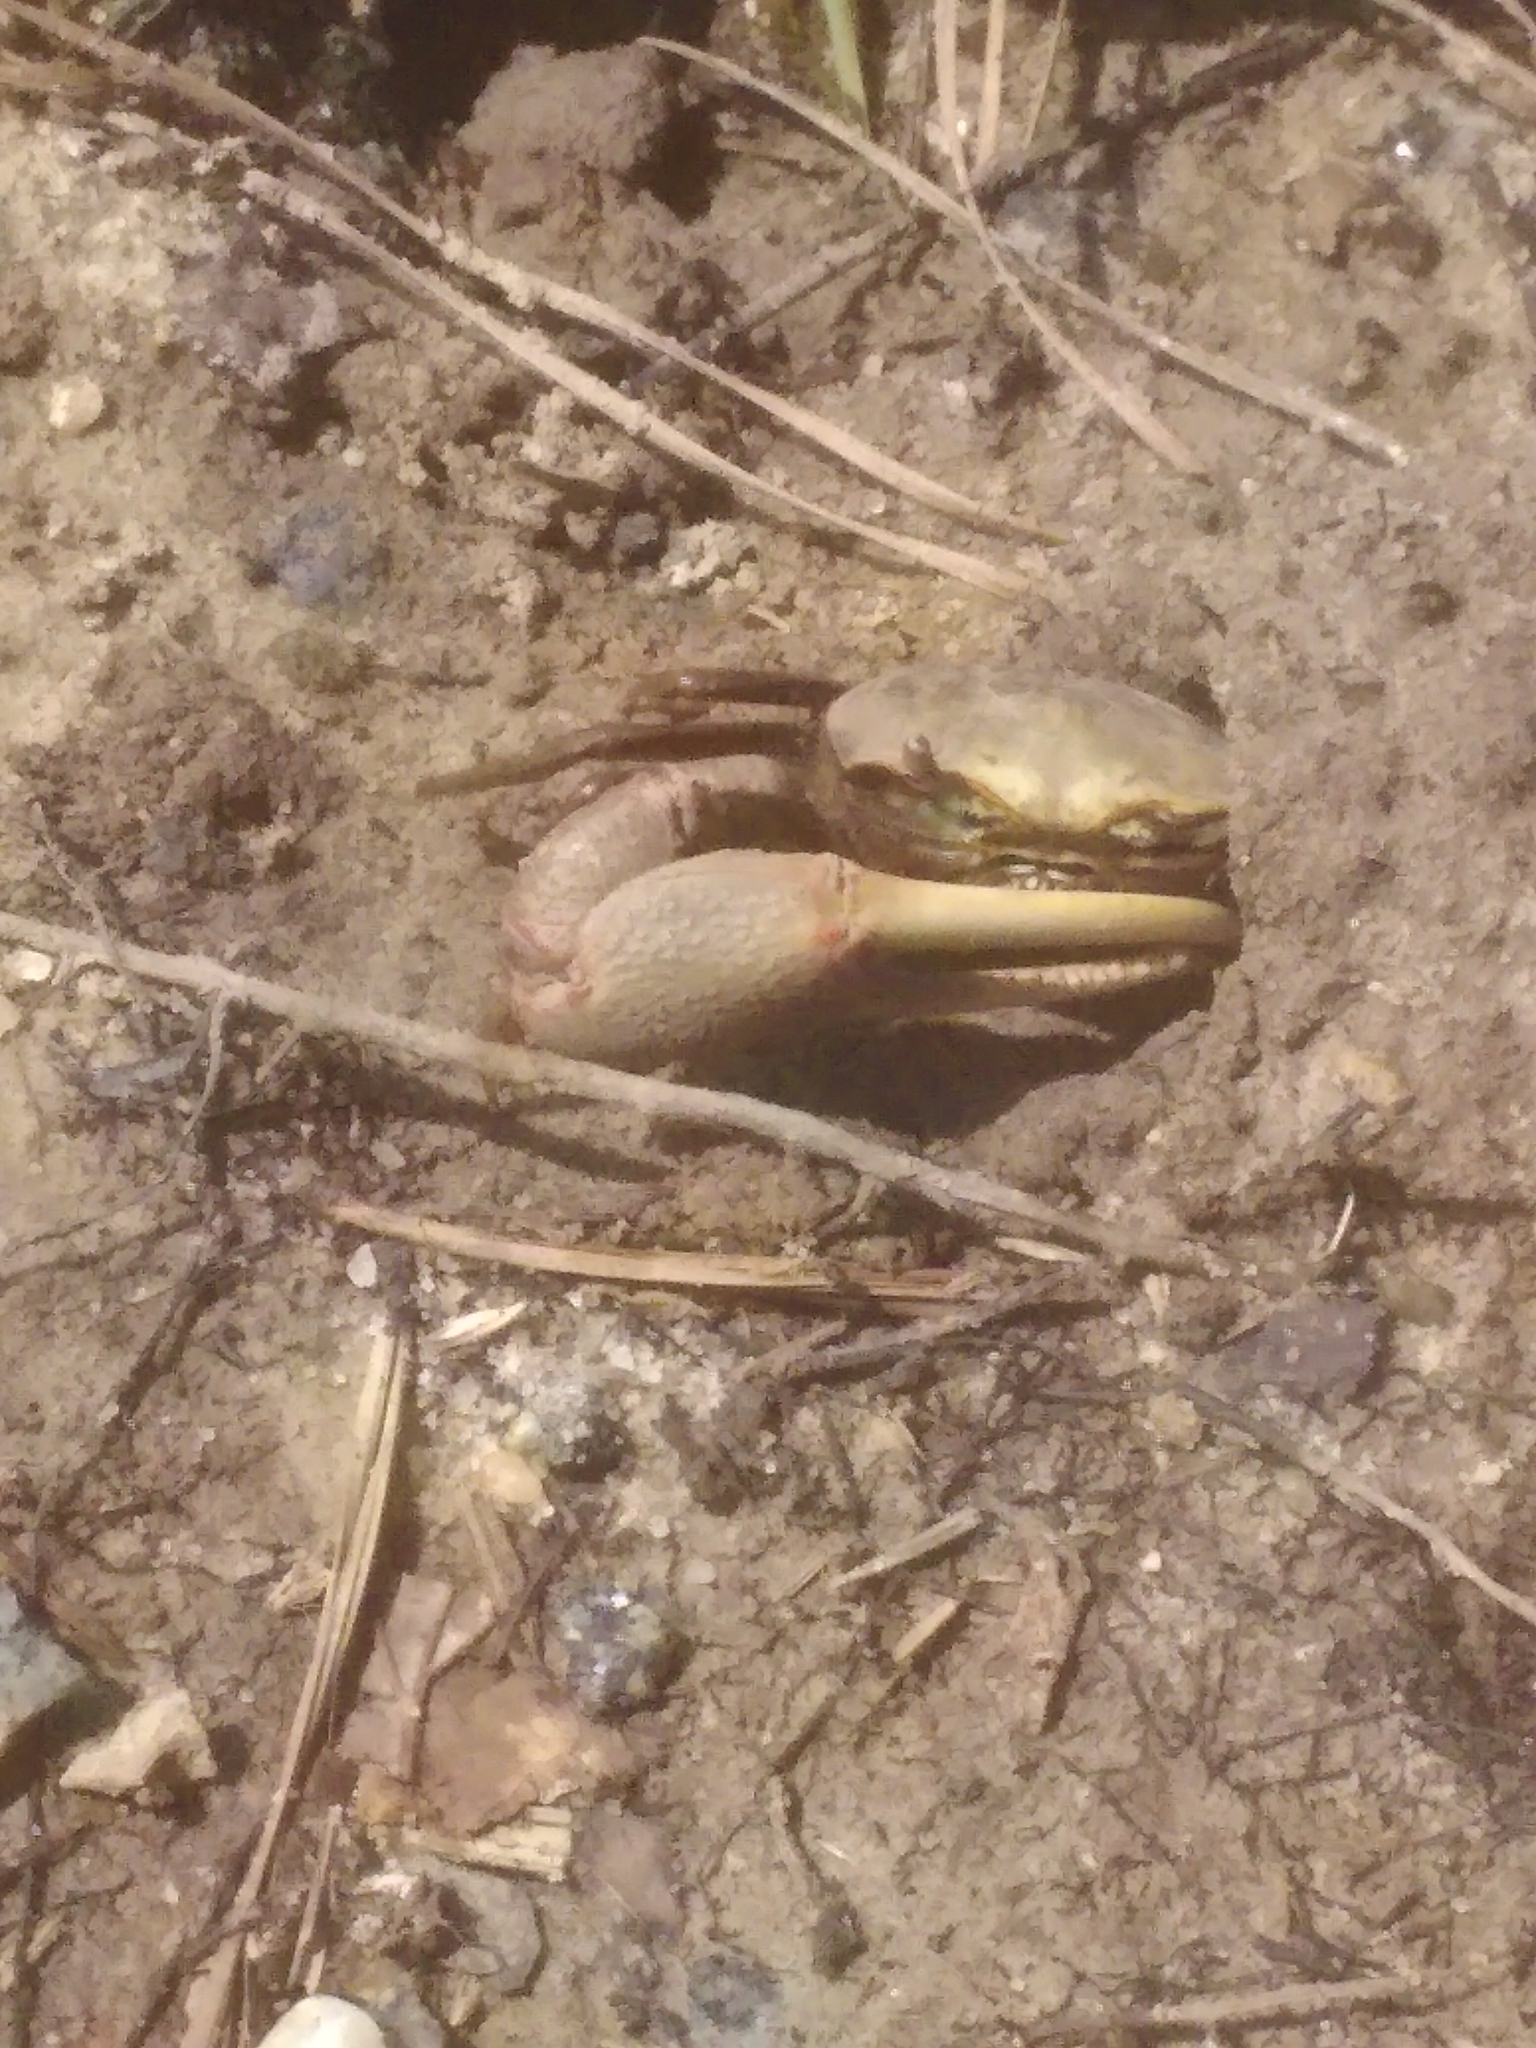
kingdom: Animalia
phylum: Arthropoda
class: Malacostraca
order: Decapoda
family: Ocypodidae
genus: Minuca
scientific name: Minuca minax
